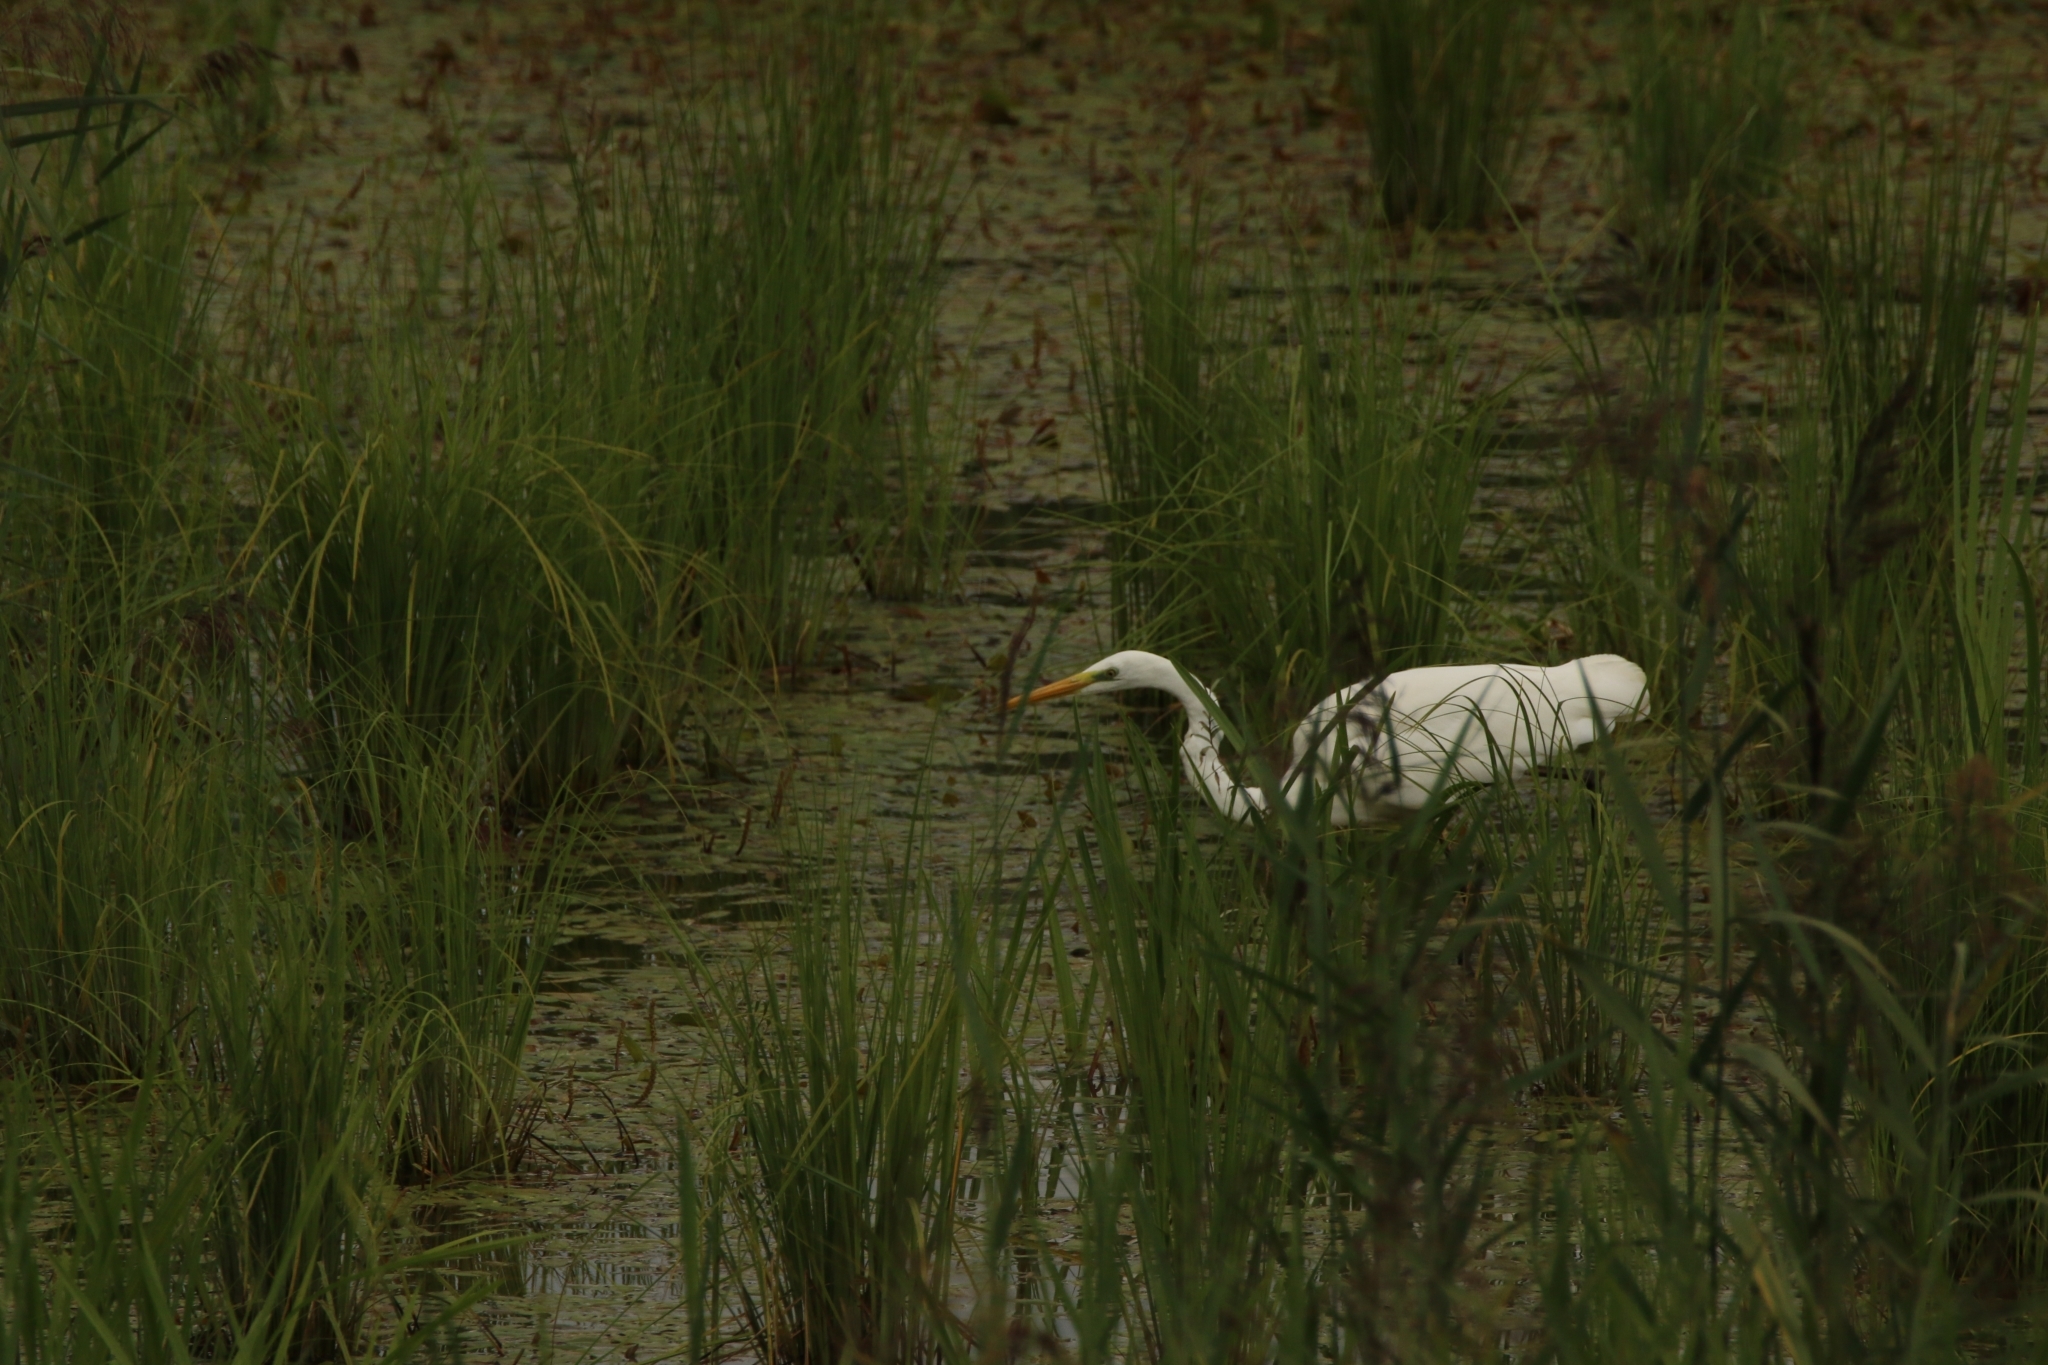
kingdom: Animalia
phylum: Chordata
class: Aves
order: Pelecaniformes
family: Ardeidae
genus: Ardea
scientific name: Ardea alba
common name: Great egret
